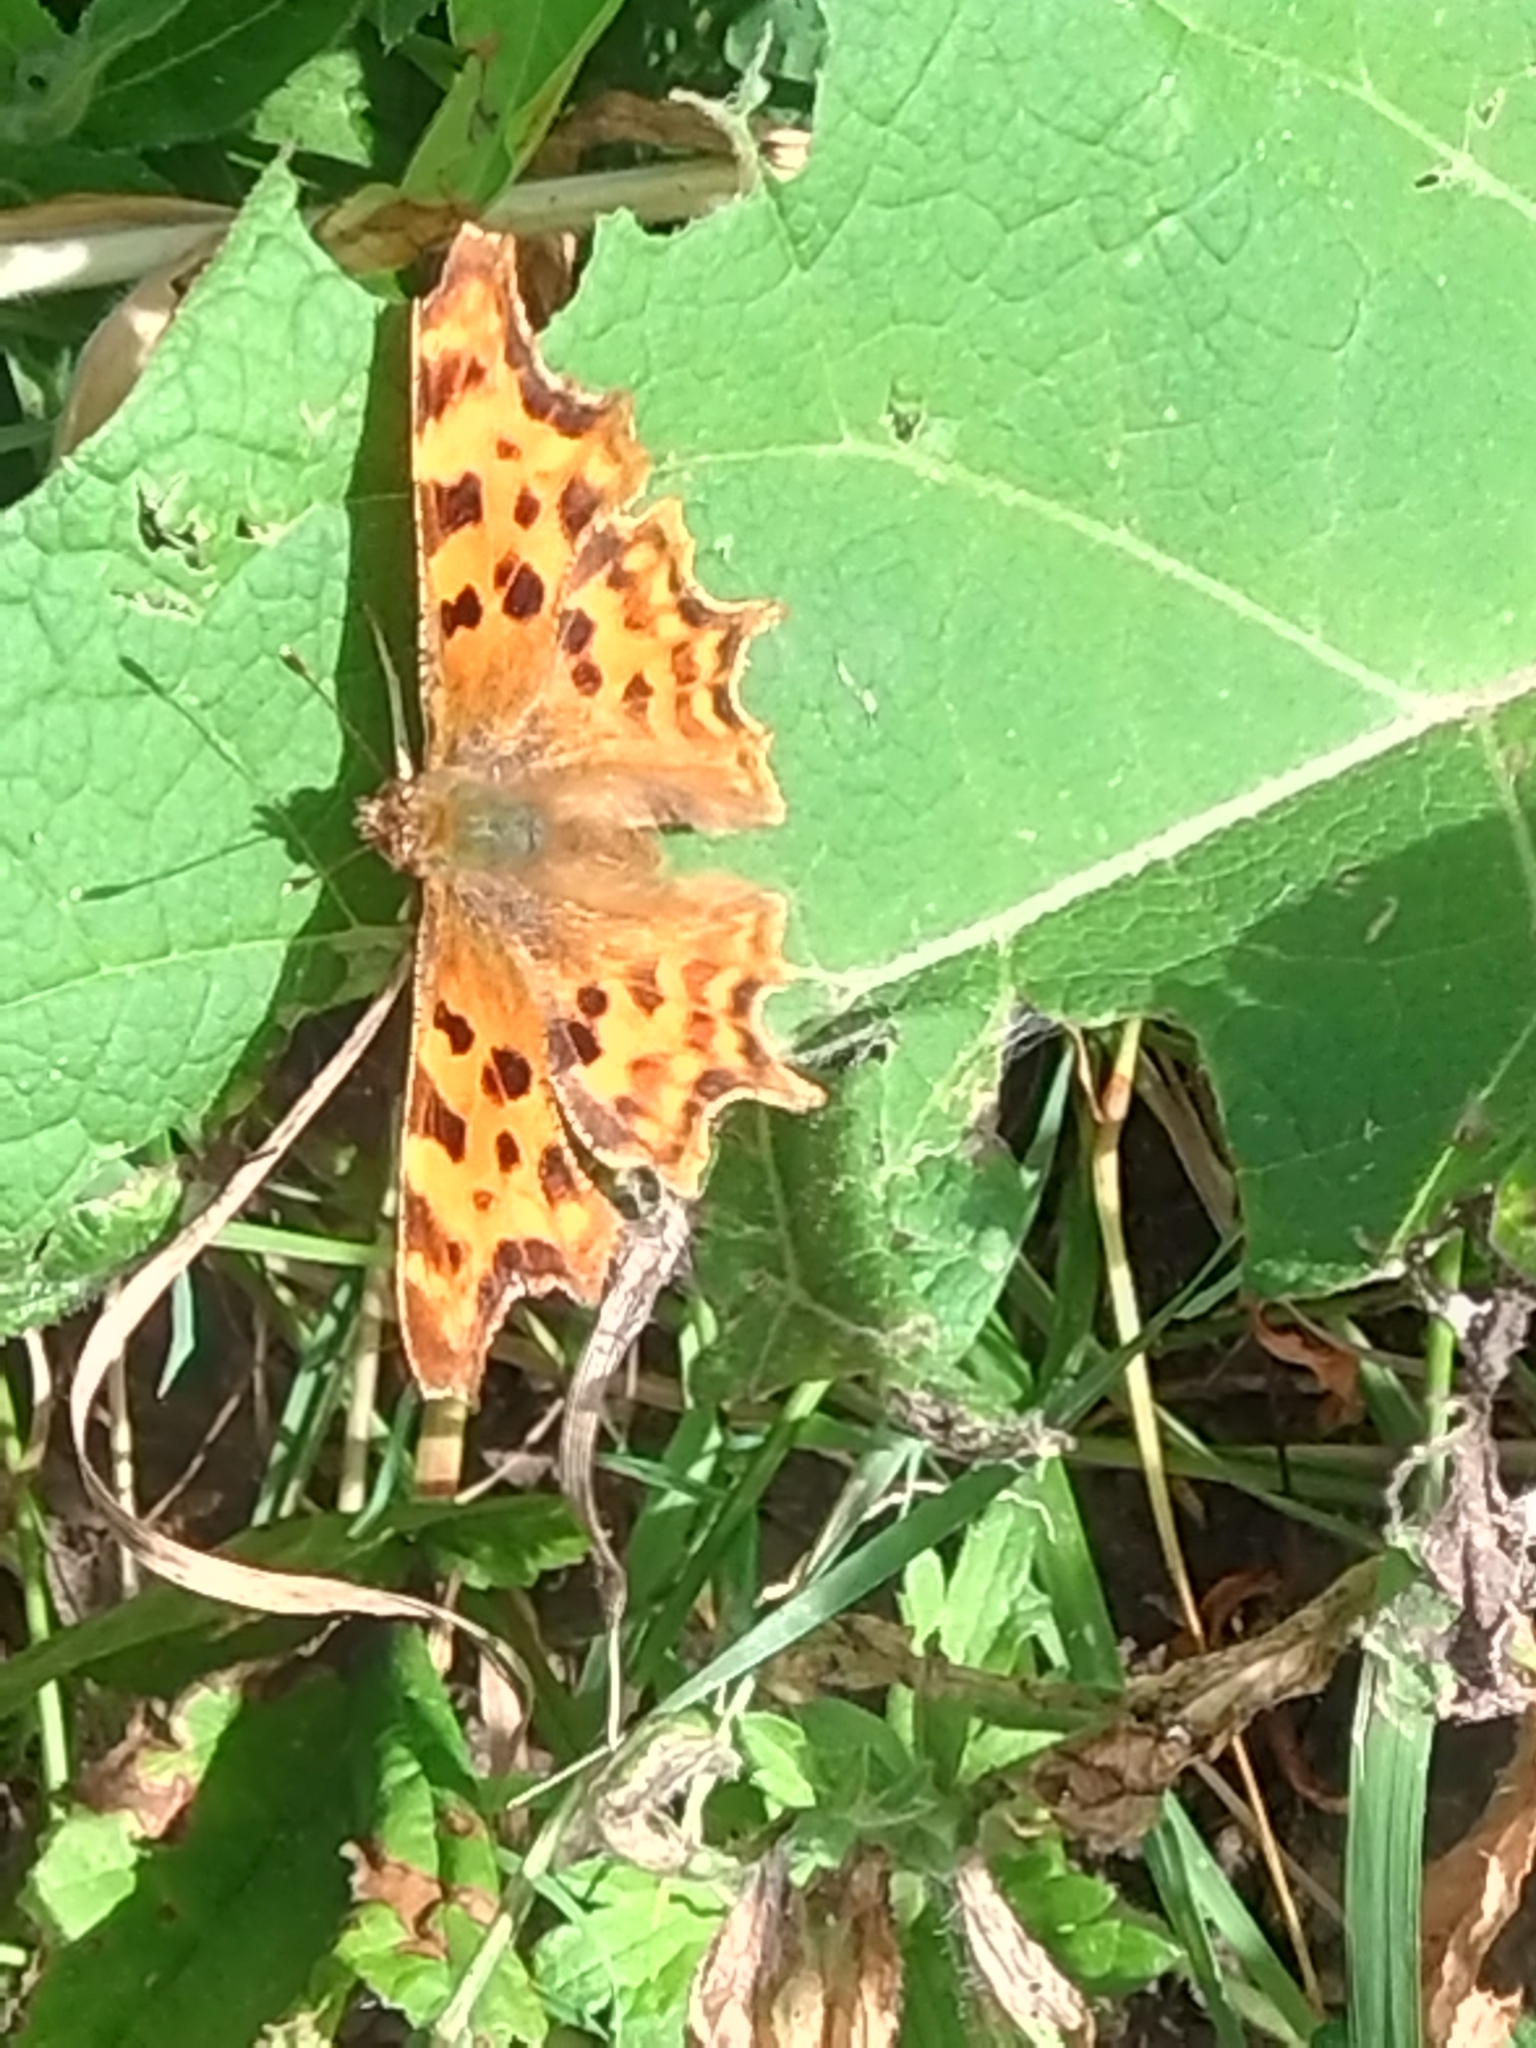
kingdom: Animalia
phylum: Arthropoda
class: Insecta
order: Lepidoptera
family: Nymphalidae
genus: Polygonia
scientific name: Polygonia c-album
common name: Comma
